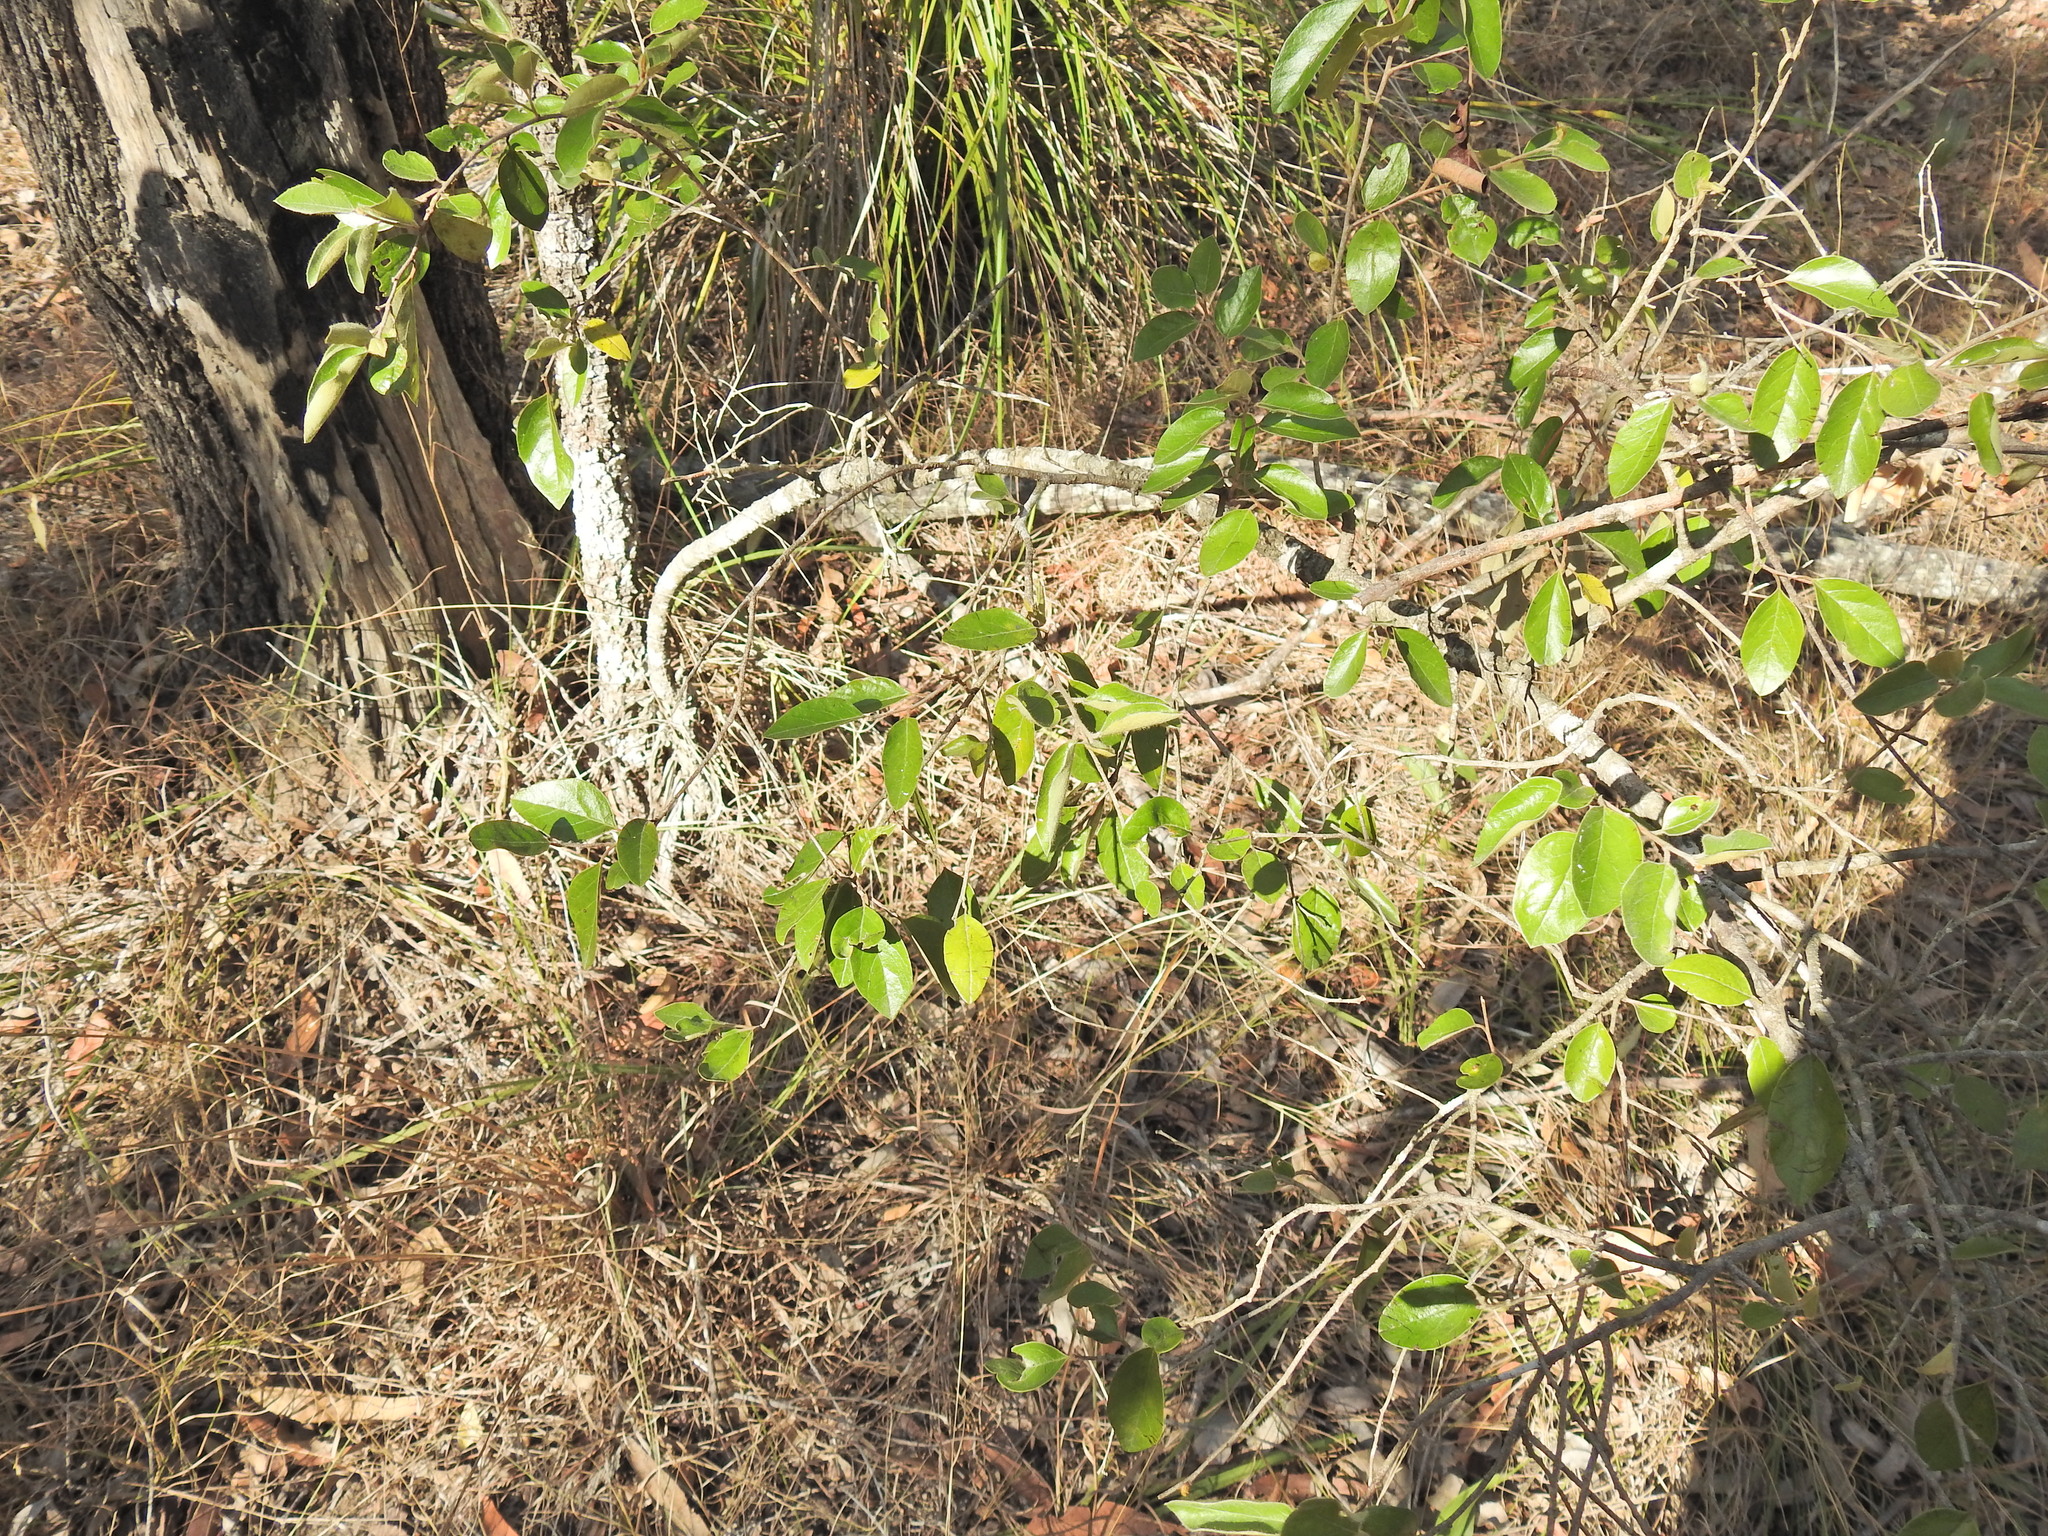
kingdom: Plantae
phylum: Tracheophyta
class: Magnoliopsida
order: Malpighiales
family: Picrodendraceae
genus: Petalostigma
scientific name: Petalostigma pubescens
